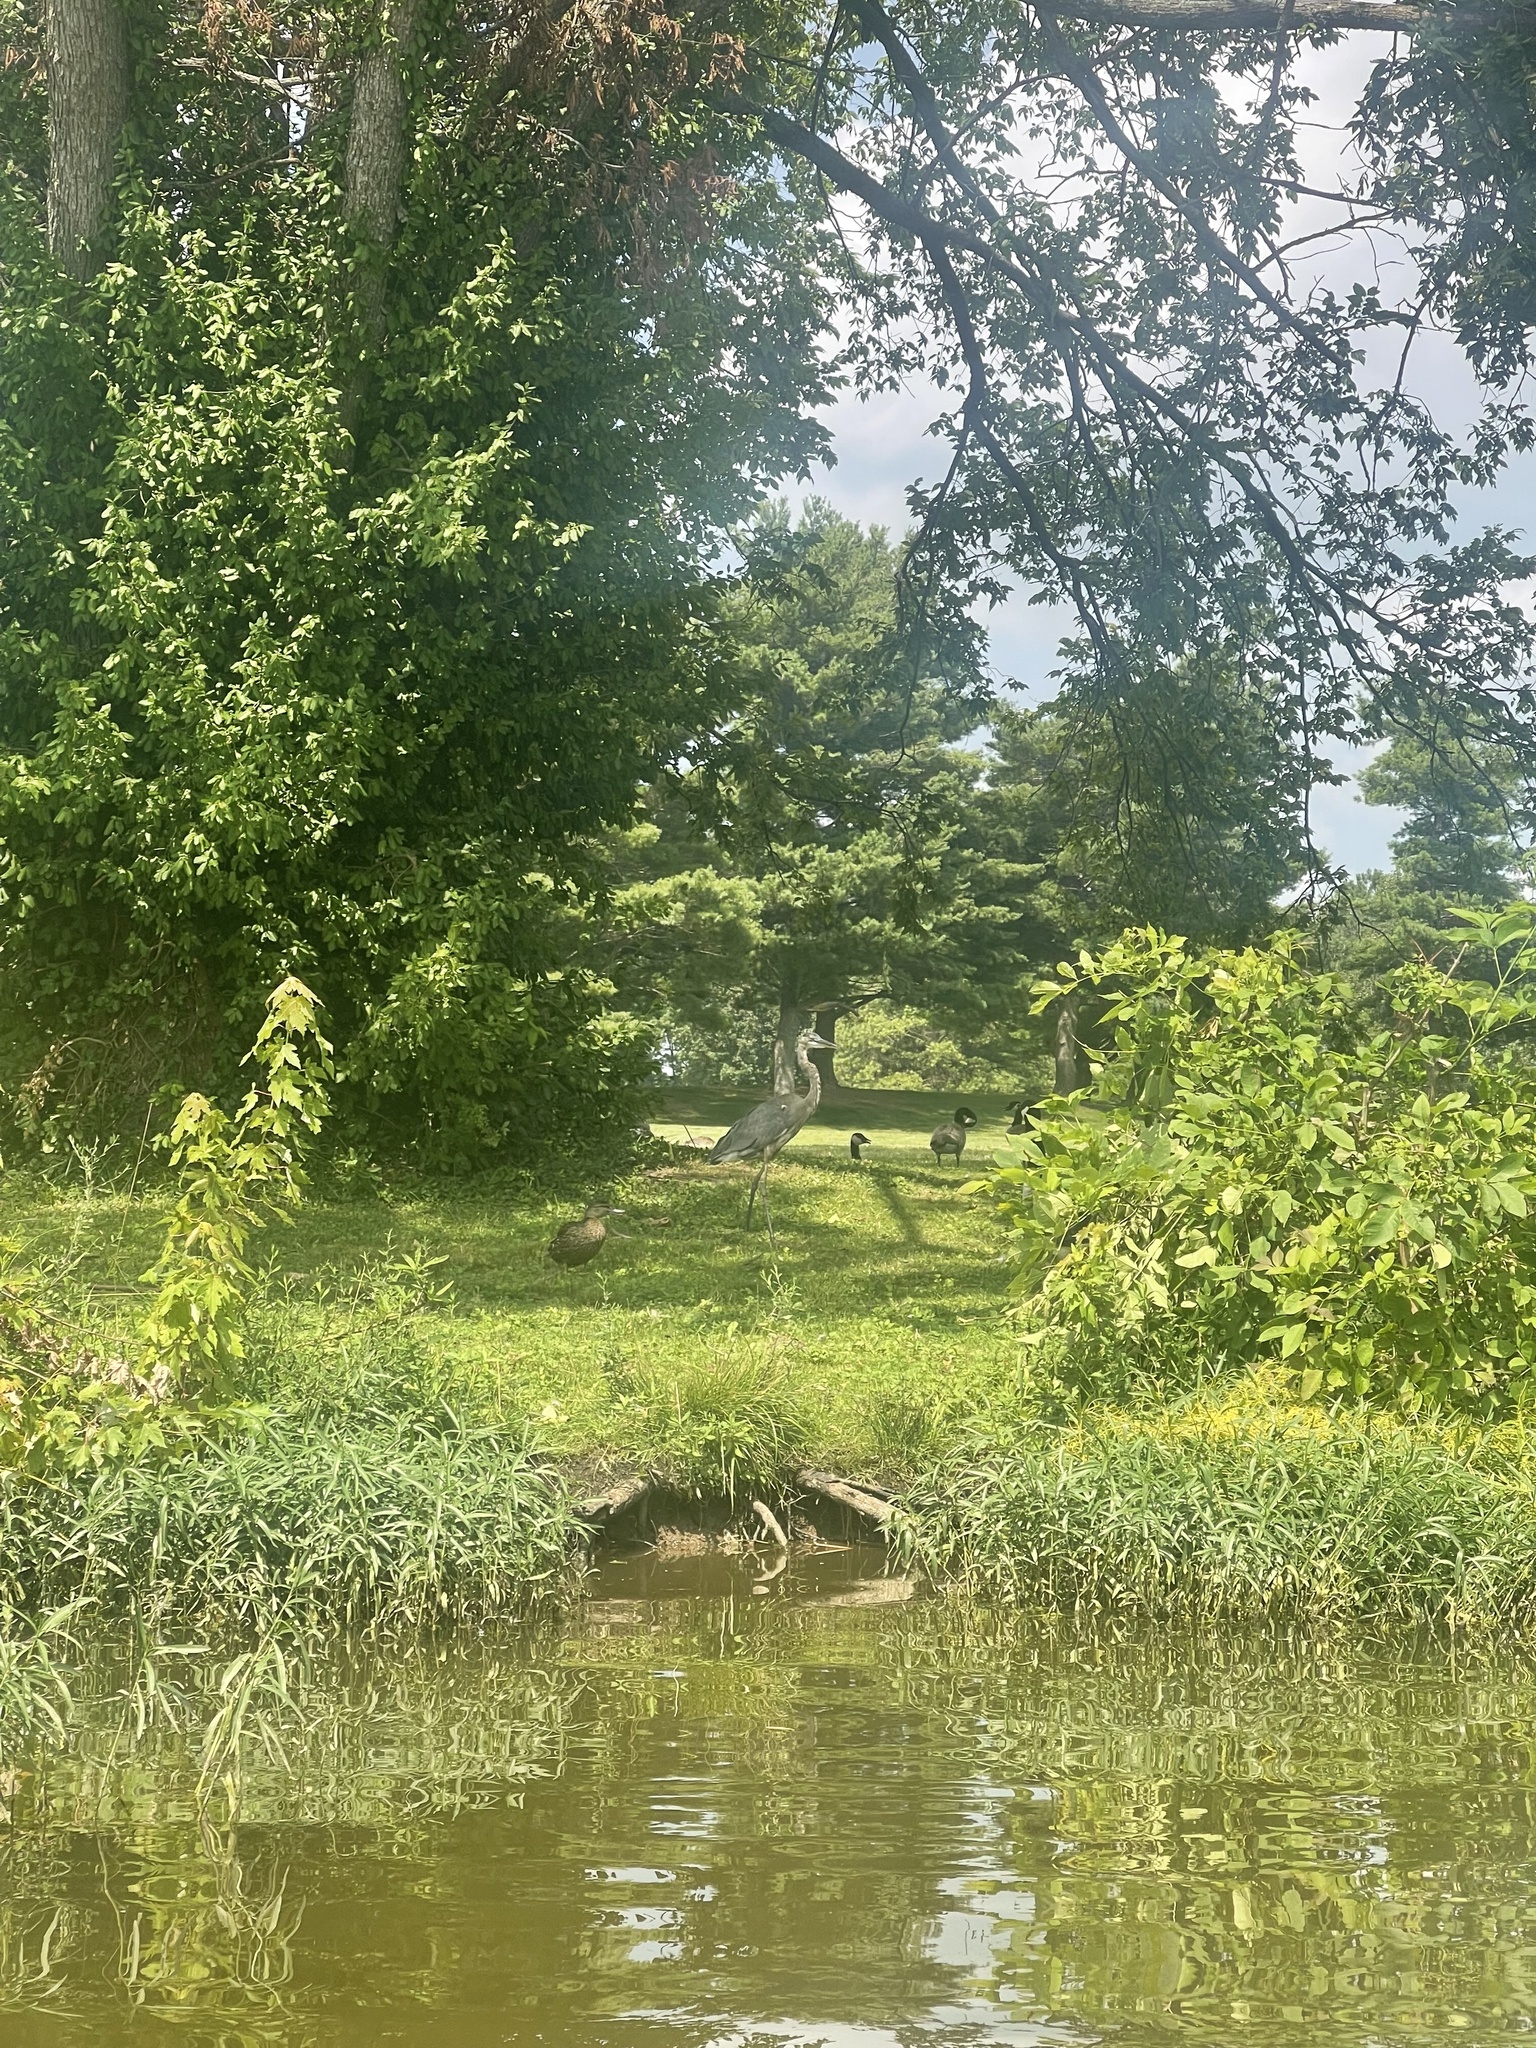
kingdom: Animalia
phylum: Chordata
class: Aves
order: Pelecaniformes
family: Ardeidae
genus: Ardea
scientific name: Ardea herodias
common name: Great blue heron
